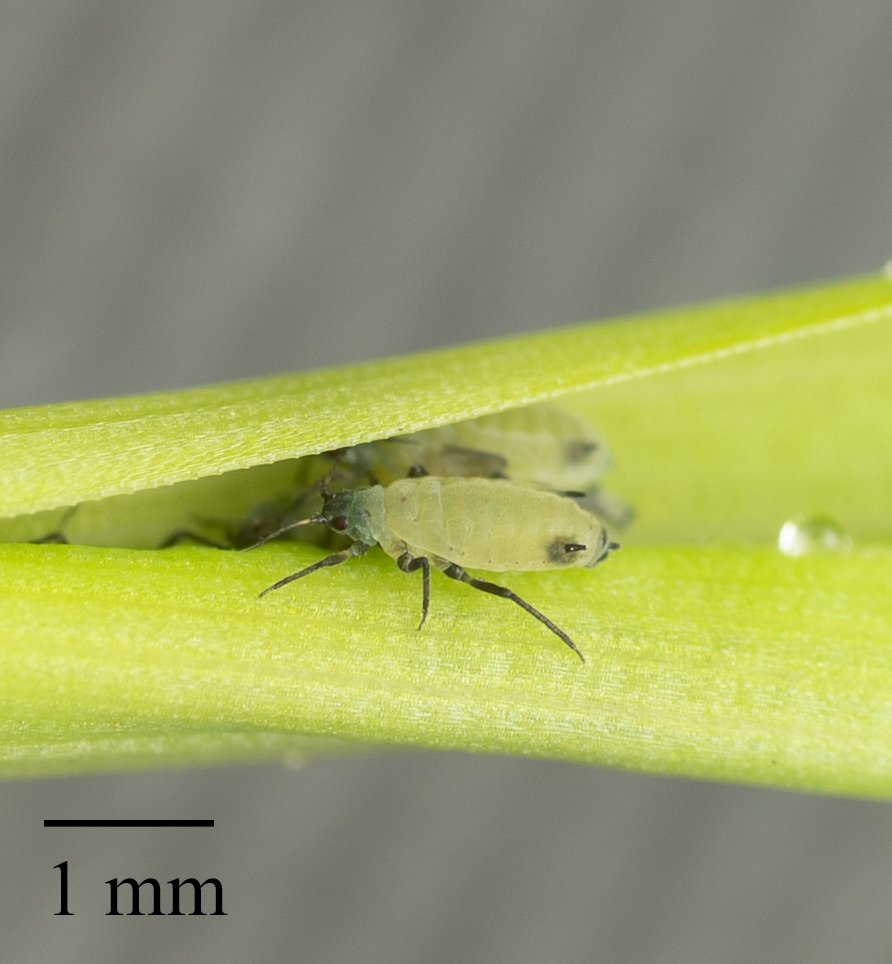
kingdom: Animalia
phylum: Arthropoda
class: Insecta
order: Hemiptera
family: Aphididae
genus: Rhopalosiphum
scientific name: Rhopalosiphum maidis
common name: Corn leaf aphid
